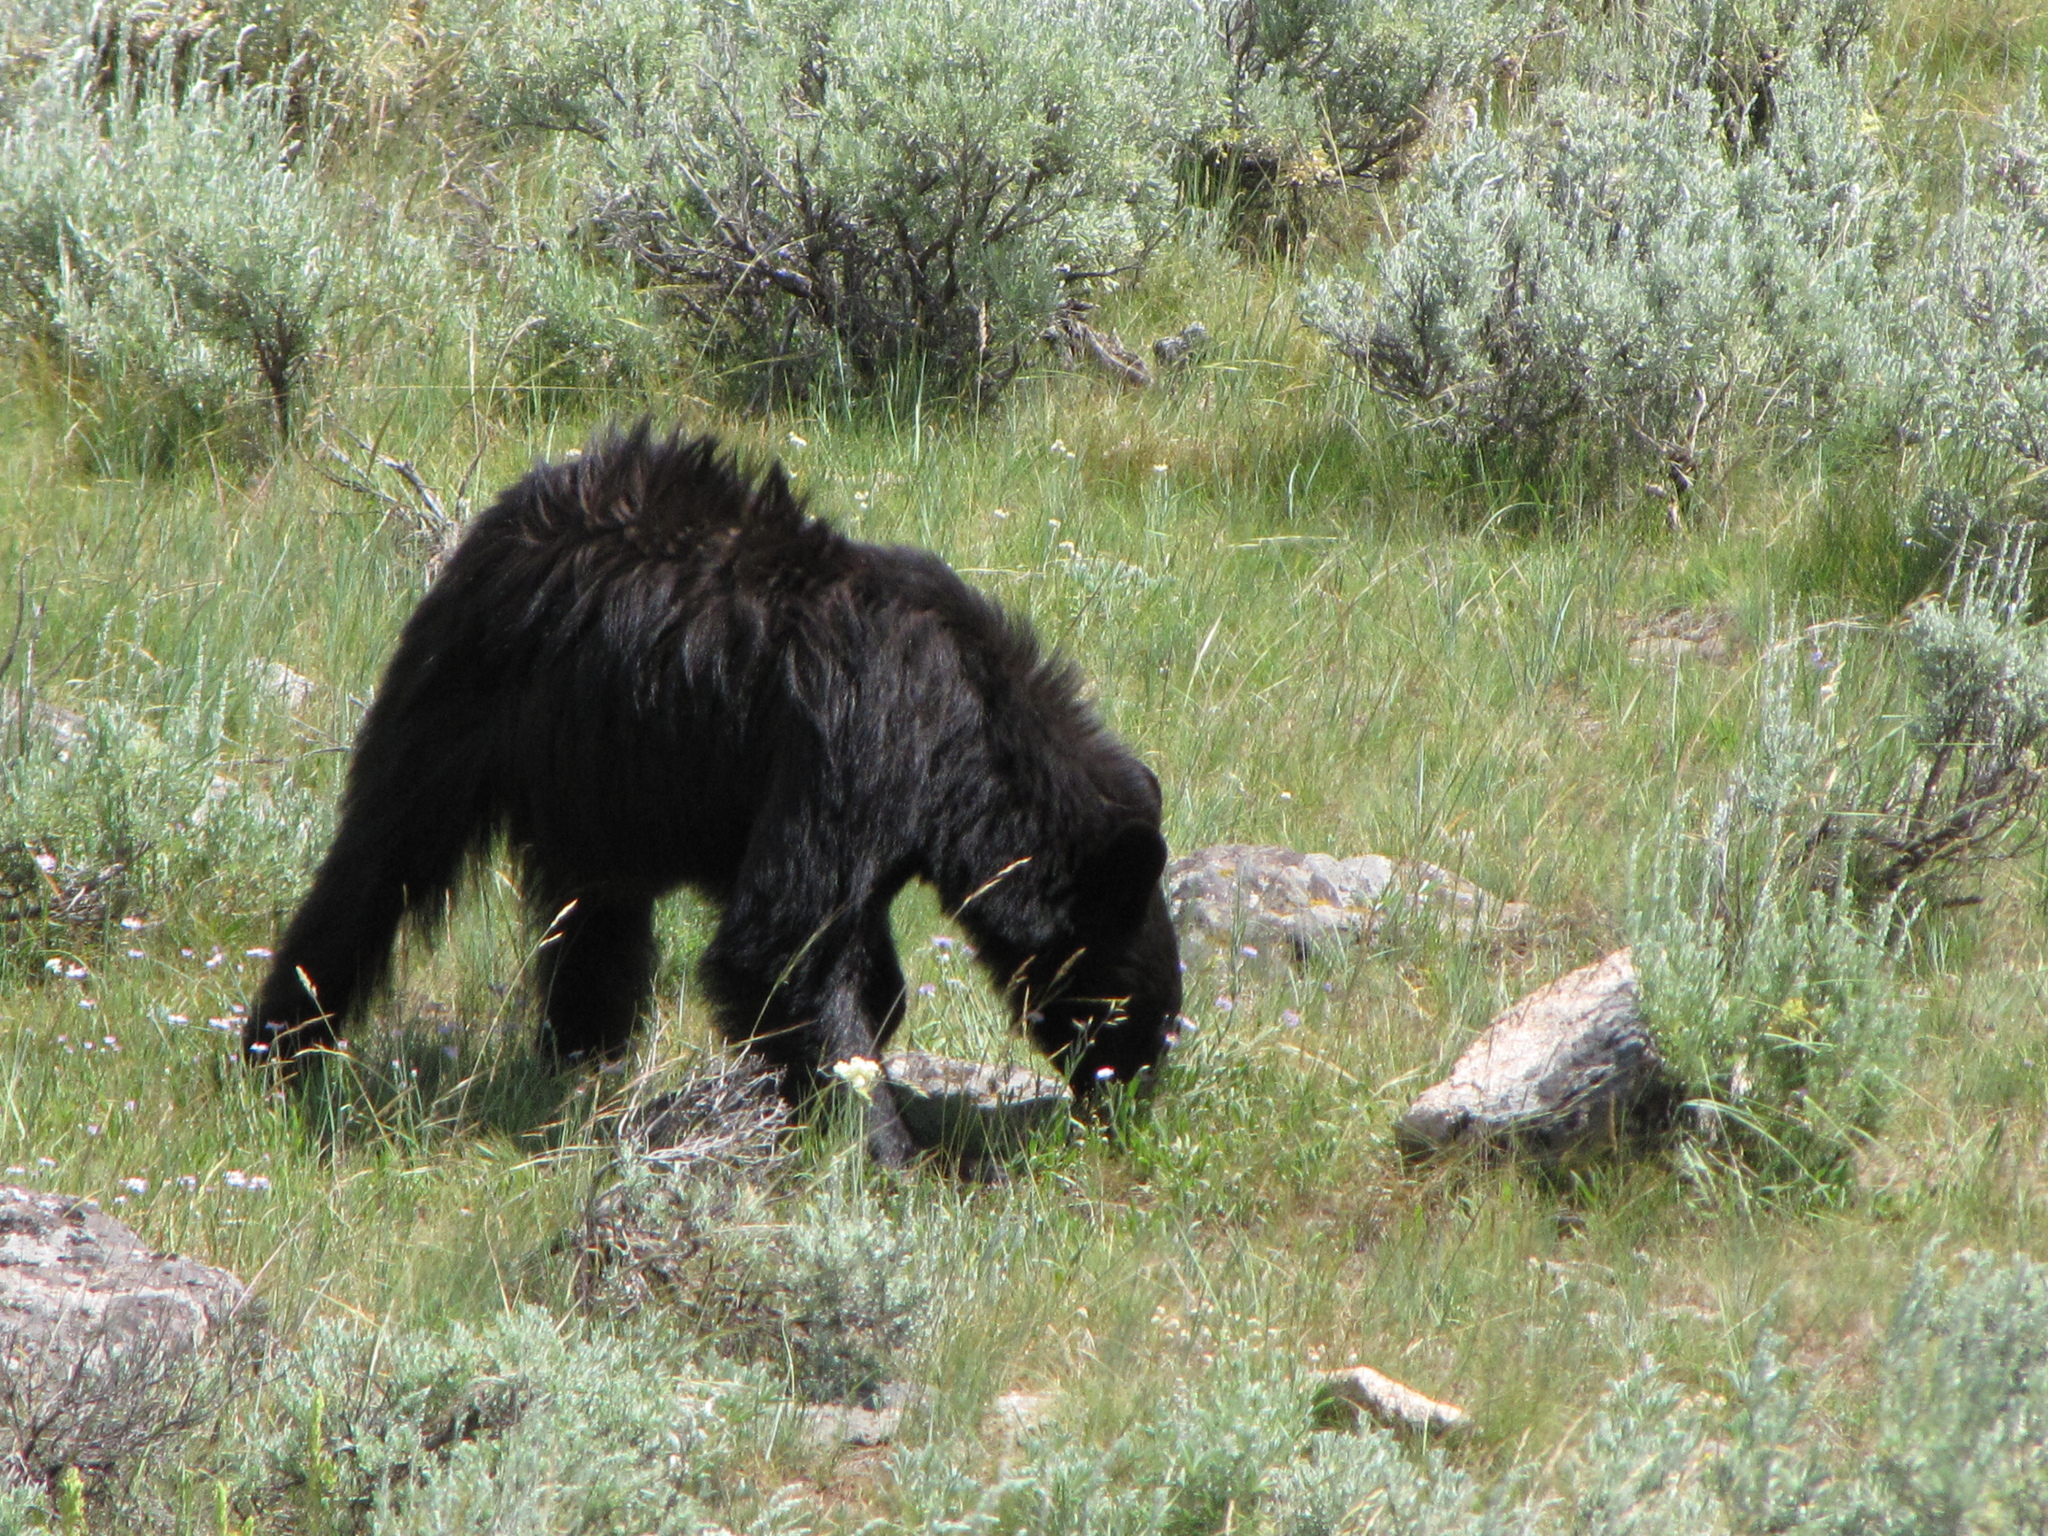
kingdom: Animalia
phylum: Chordata
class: Mammalia
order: Carnivora
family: Ursidae
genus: Ursus
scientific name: Ursus americanus
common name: American black bear
